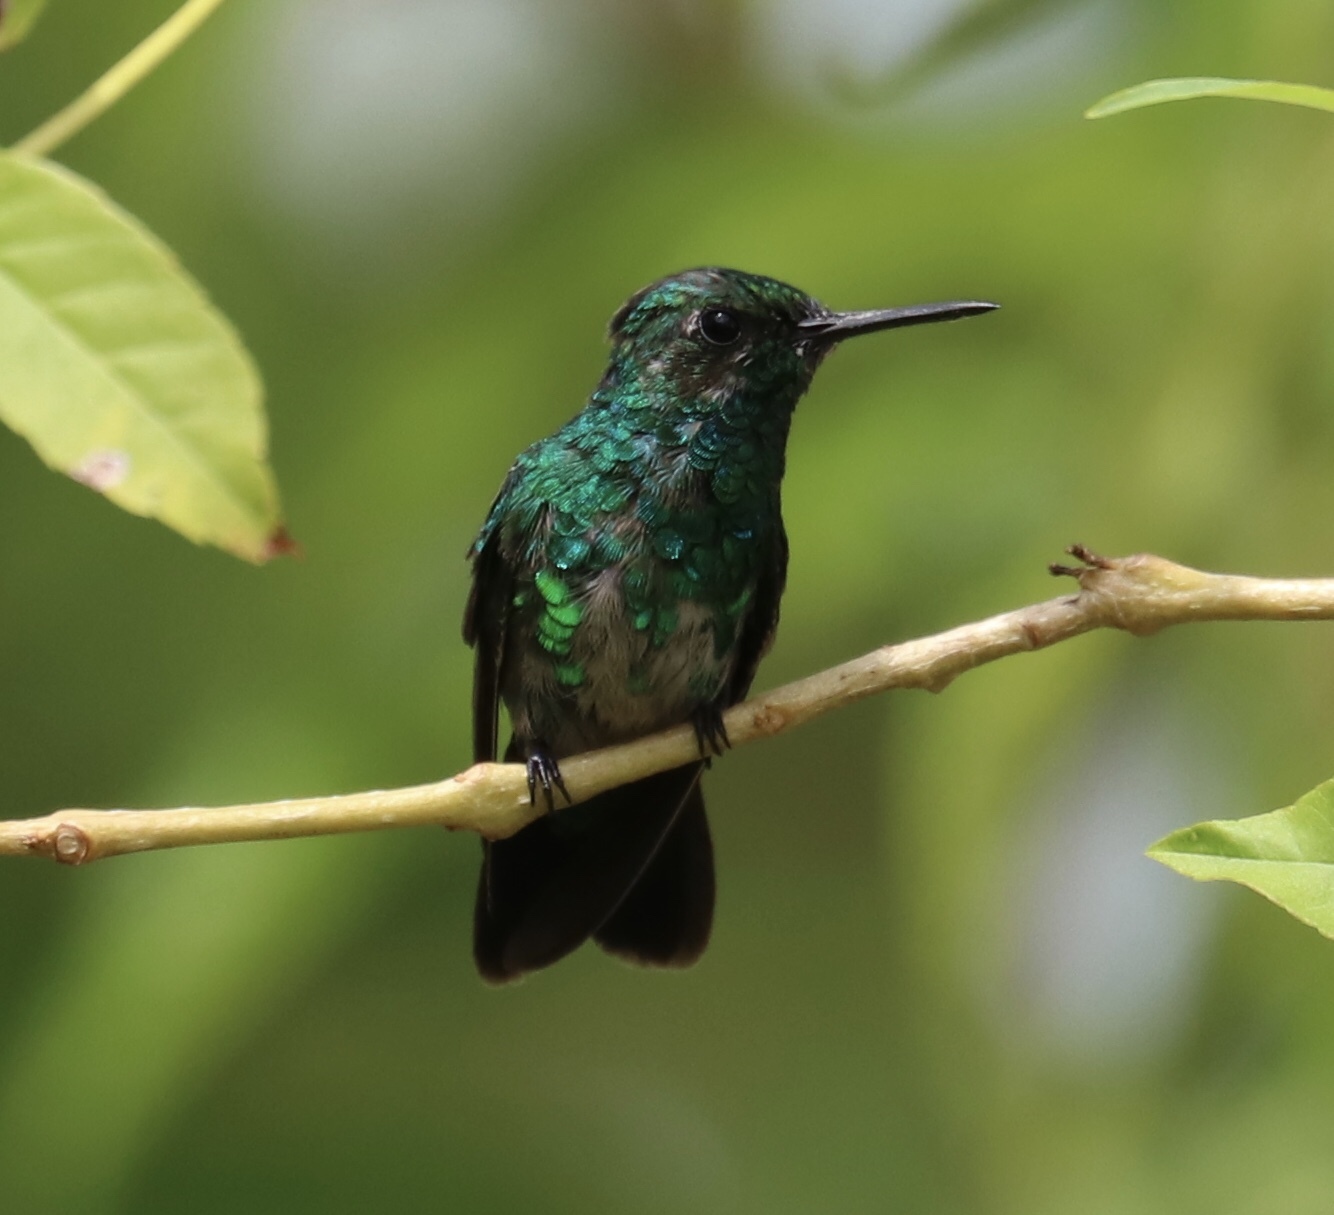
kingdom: Animalia
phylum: Chordata
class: Aves
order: Apodiformes
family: Trochilidae
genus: Chlorostilbon
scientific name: Chlorostilbon assimilis
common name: Garden emerald
